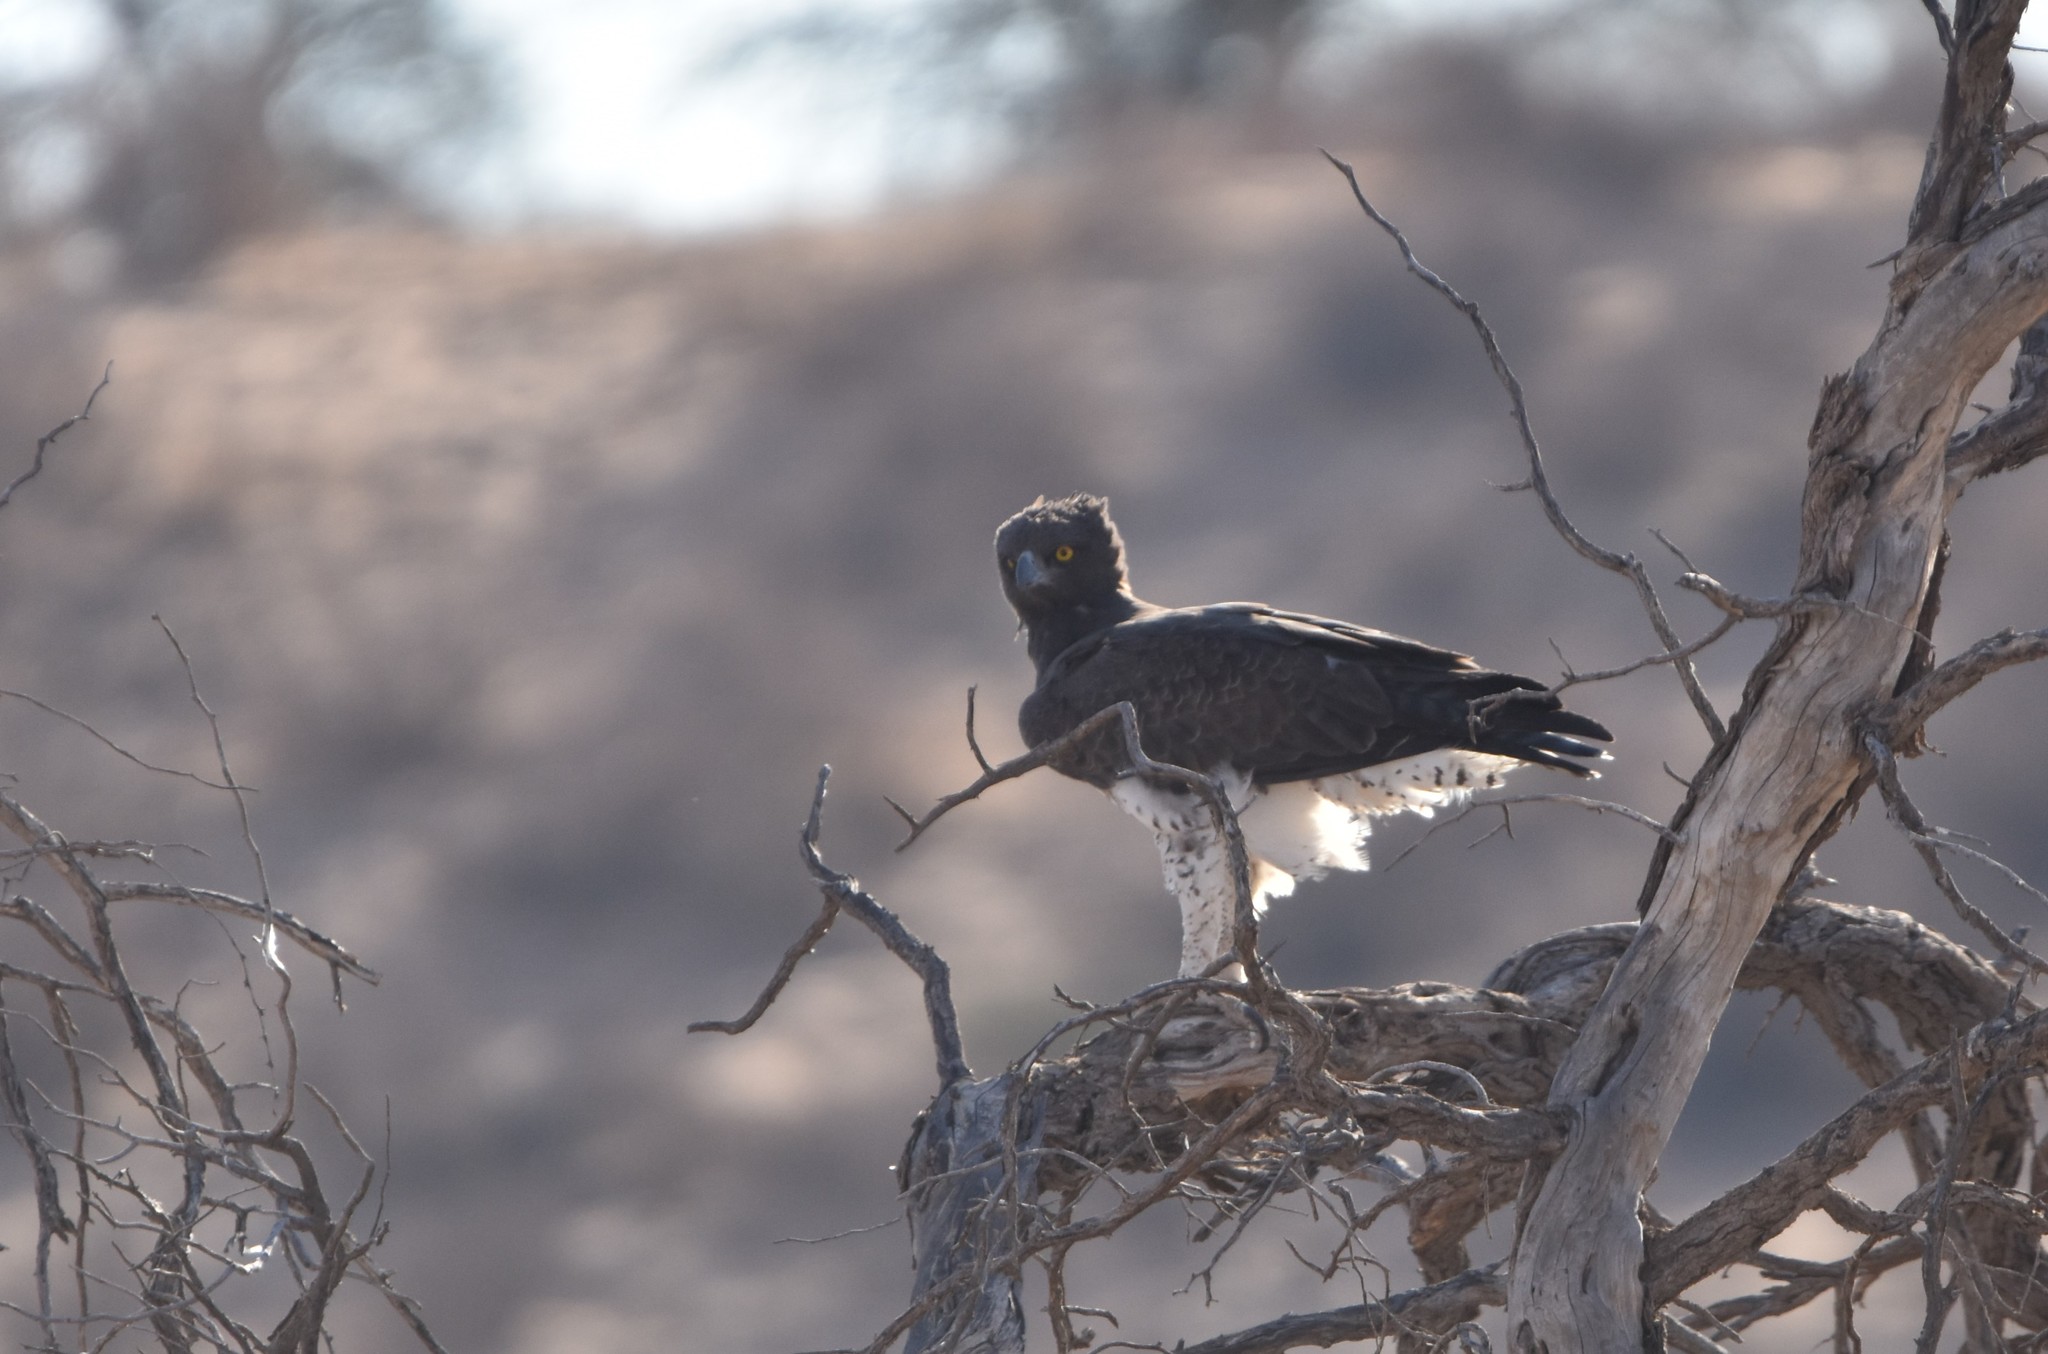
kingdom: Animalia
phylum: Chordata
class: Aves
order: Accipitriformes
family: Accipitridae
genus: Polemaetus
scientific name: Polemaetus bellicosus
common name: Martial eagle
